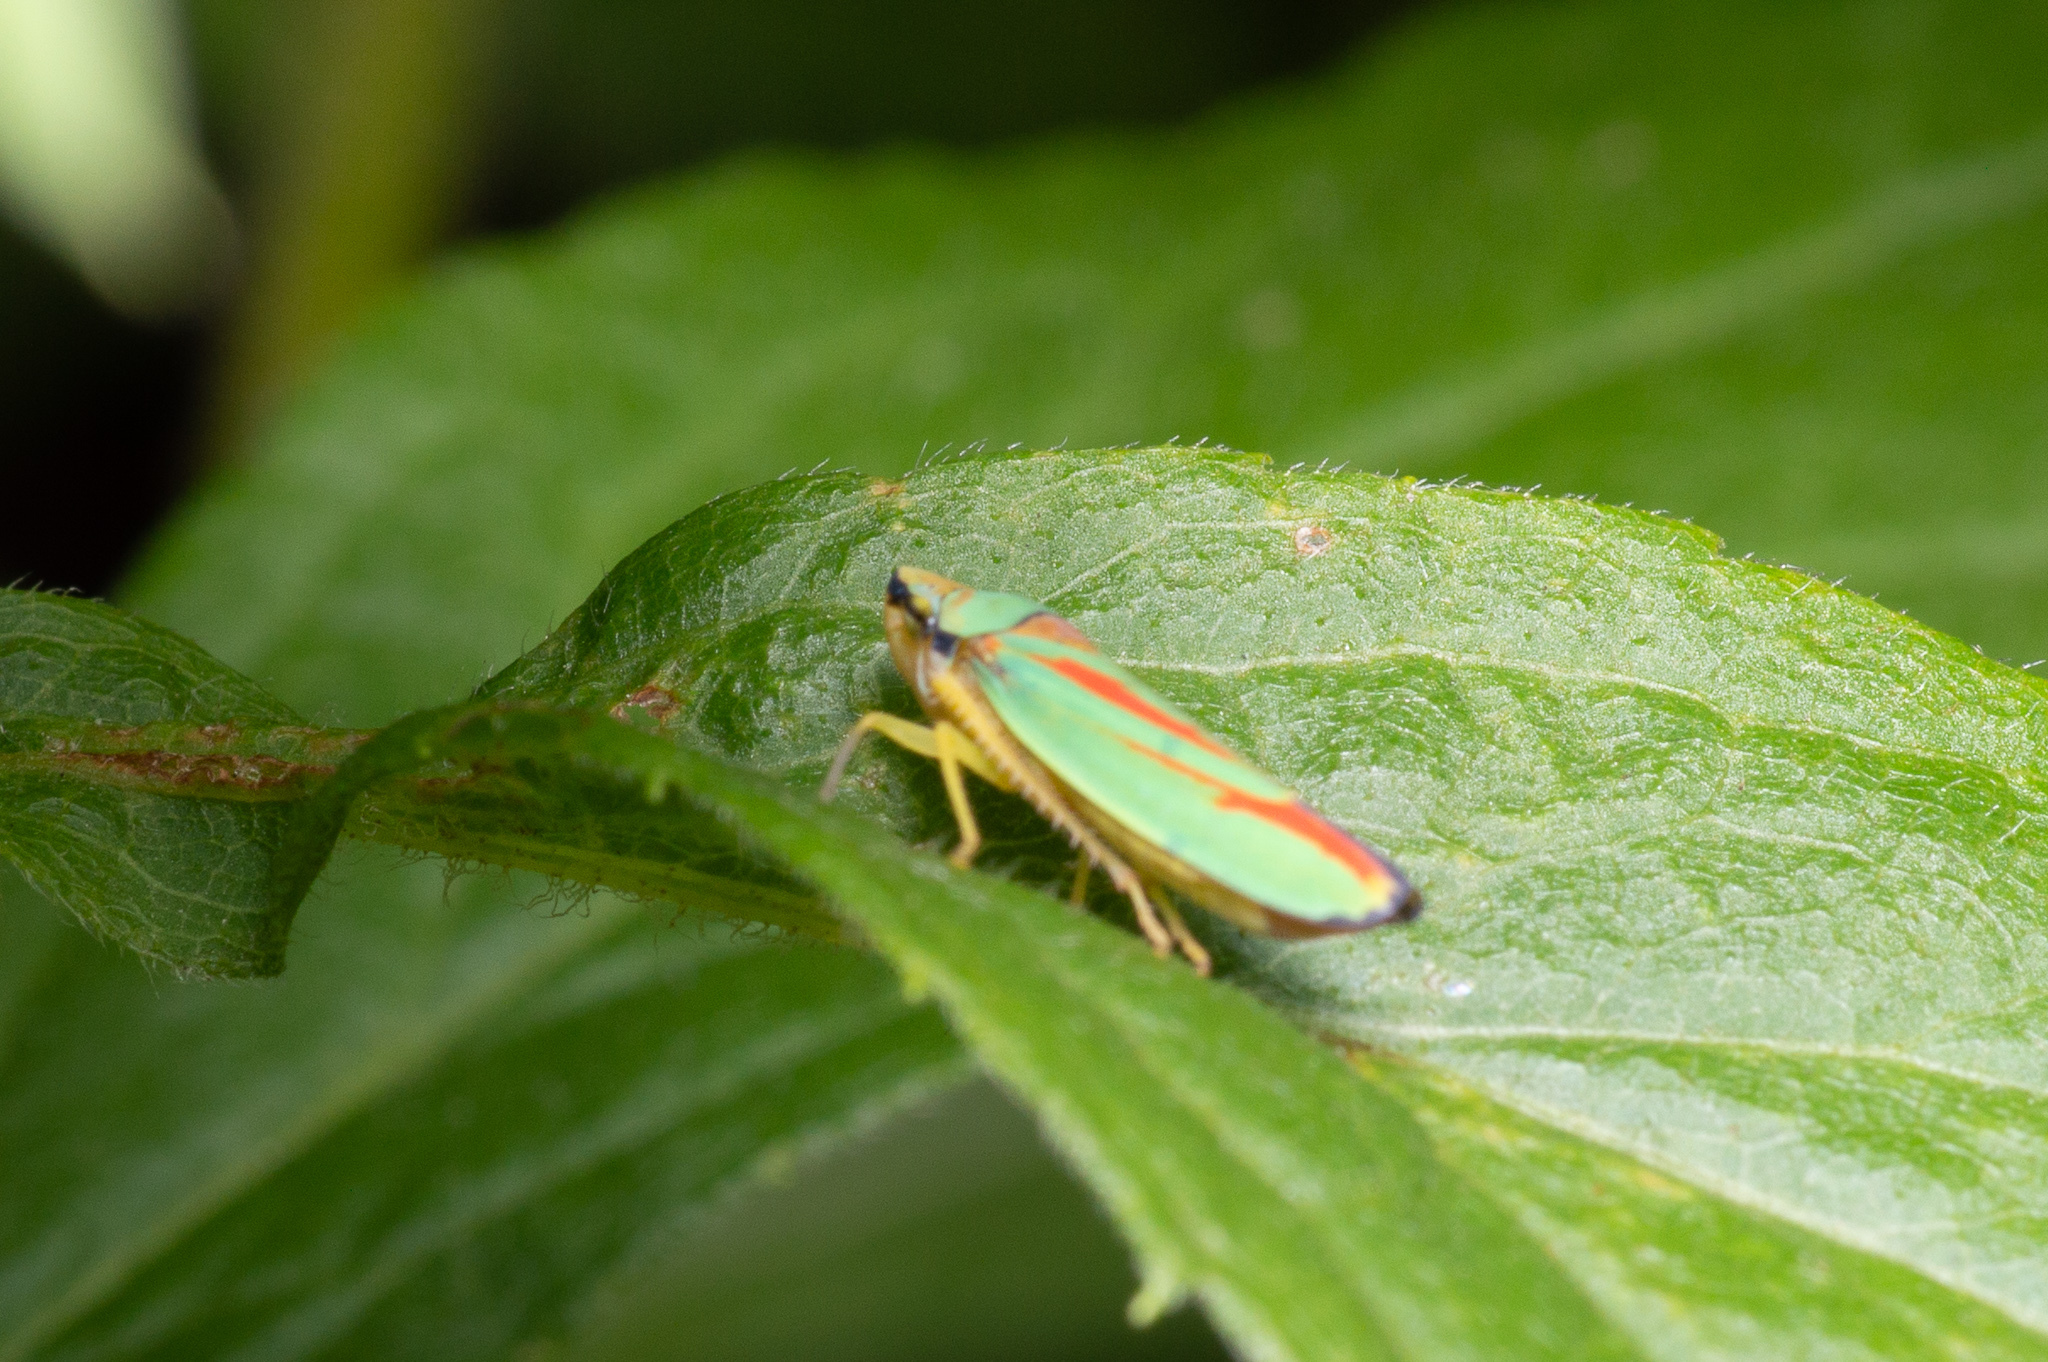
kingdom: Animalia
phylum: Arthropoda
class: Insecta
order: Hemiptera
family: Cicadellidae
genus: Graphocephala
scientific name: Graphocephala fennahi
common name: Rhododendron leafhopper
